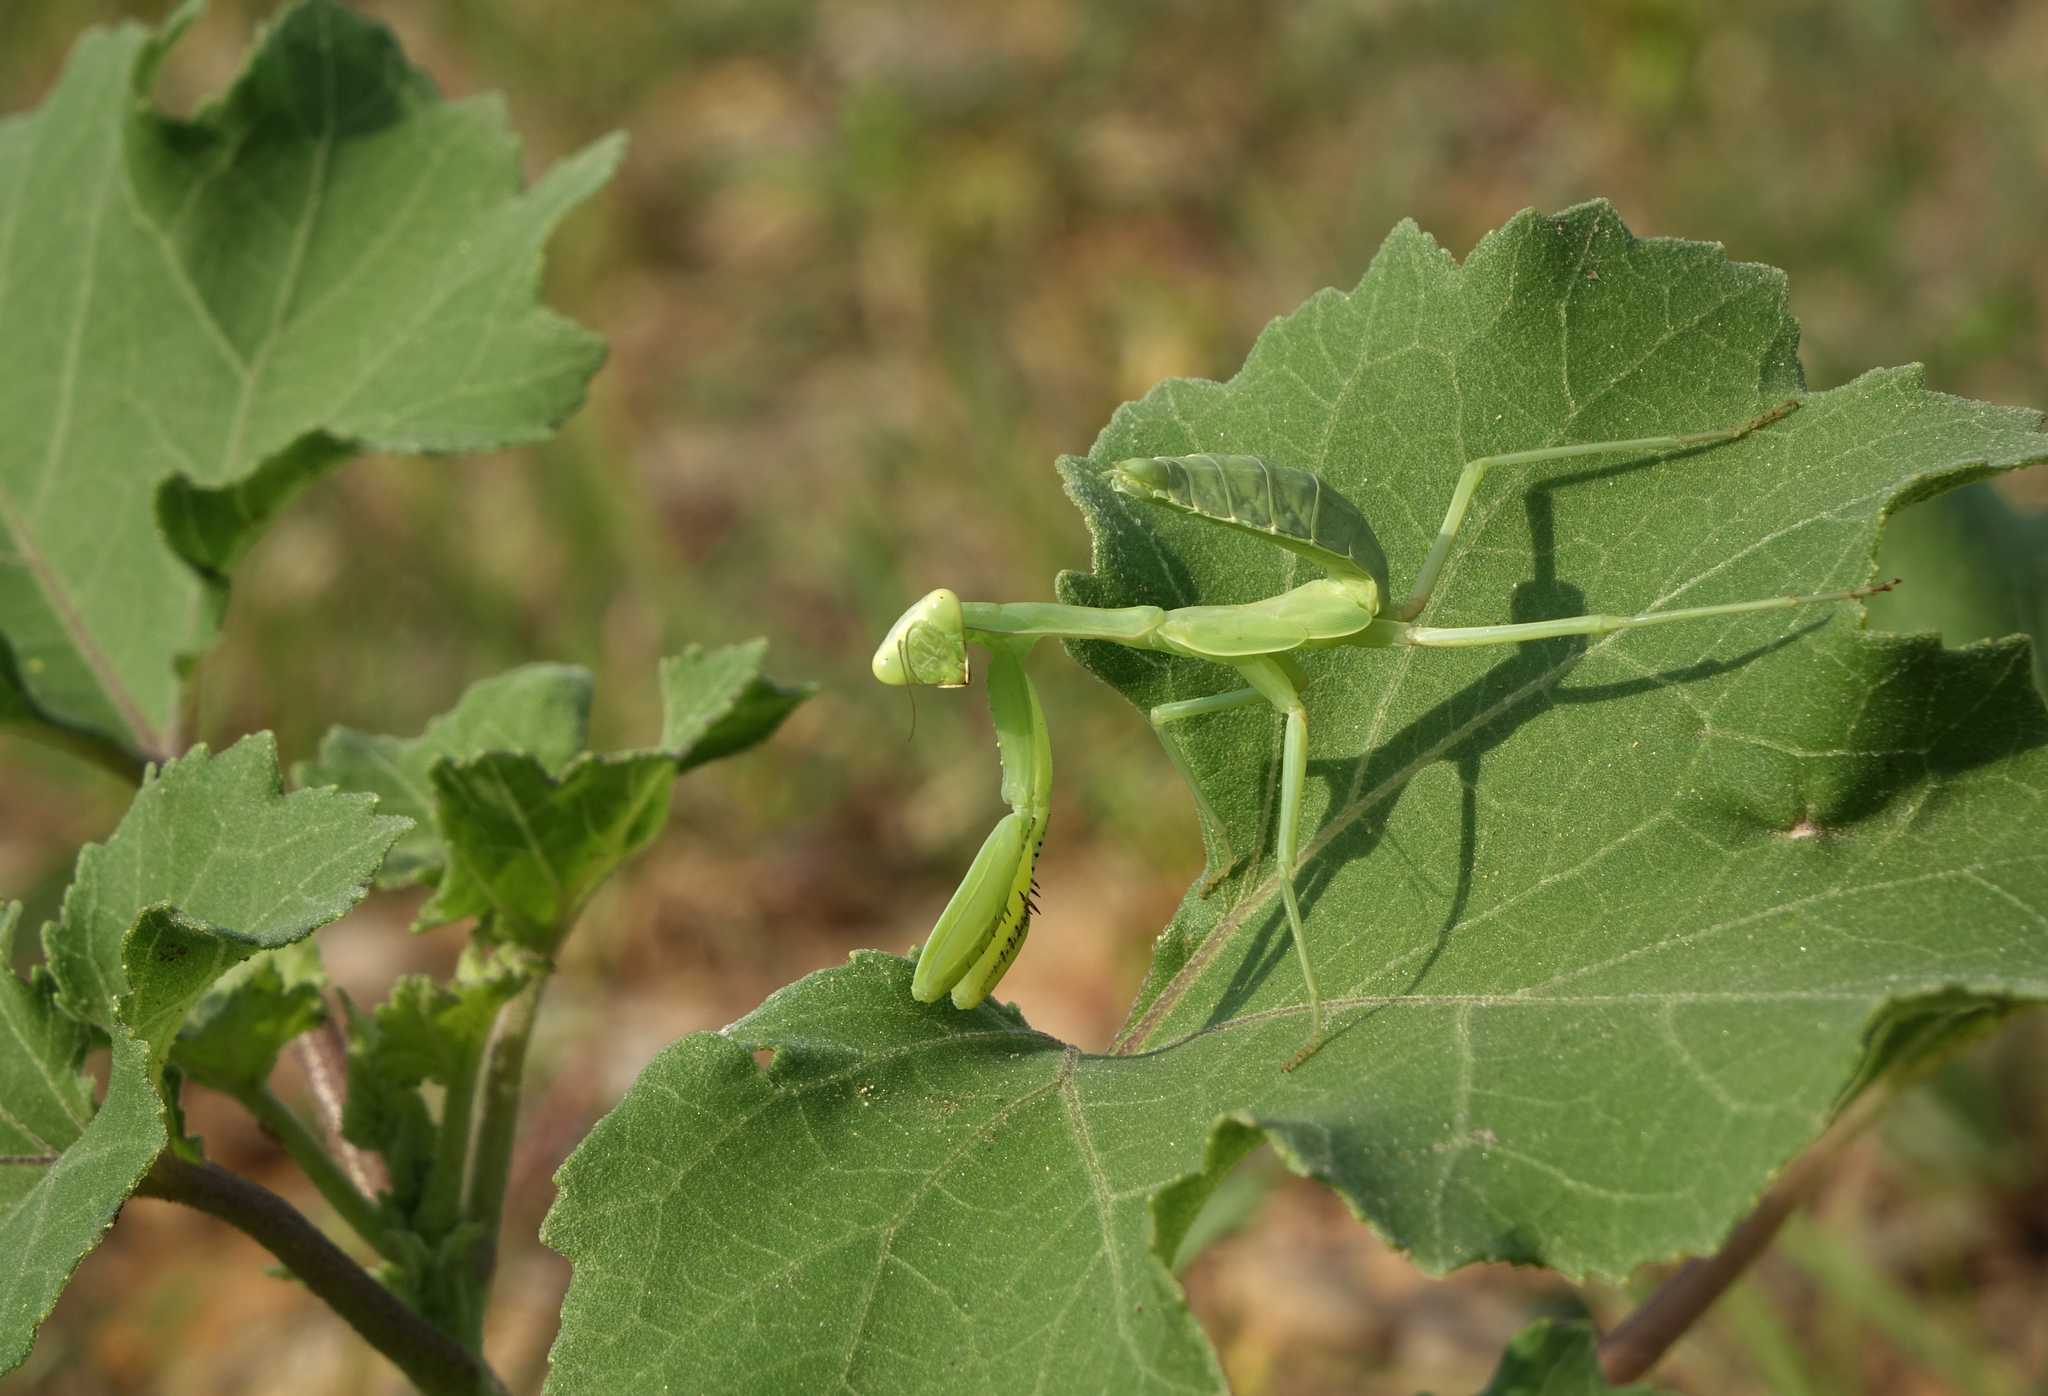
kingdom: Animalia
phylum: Arthropoda
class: Insecta
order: Mantodea
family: Mantidae
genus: Hierodula
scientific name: Hierodula transcaucasica
